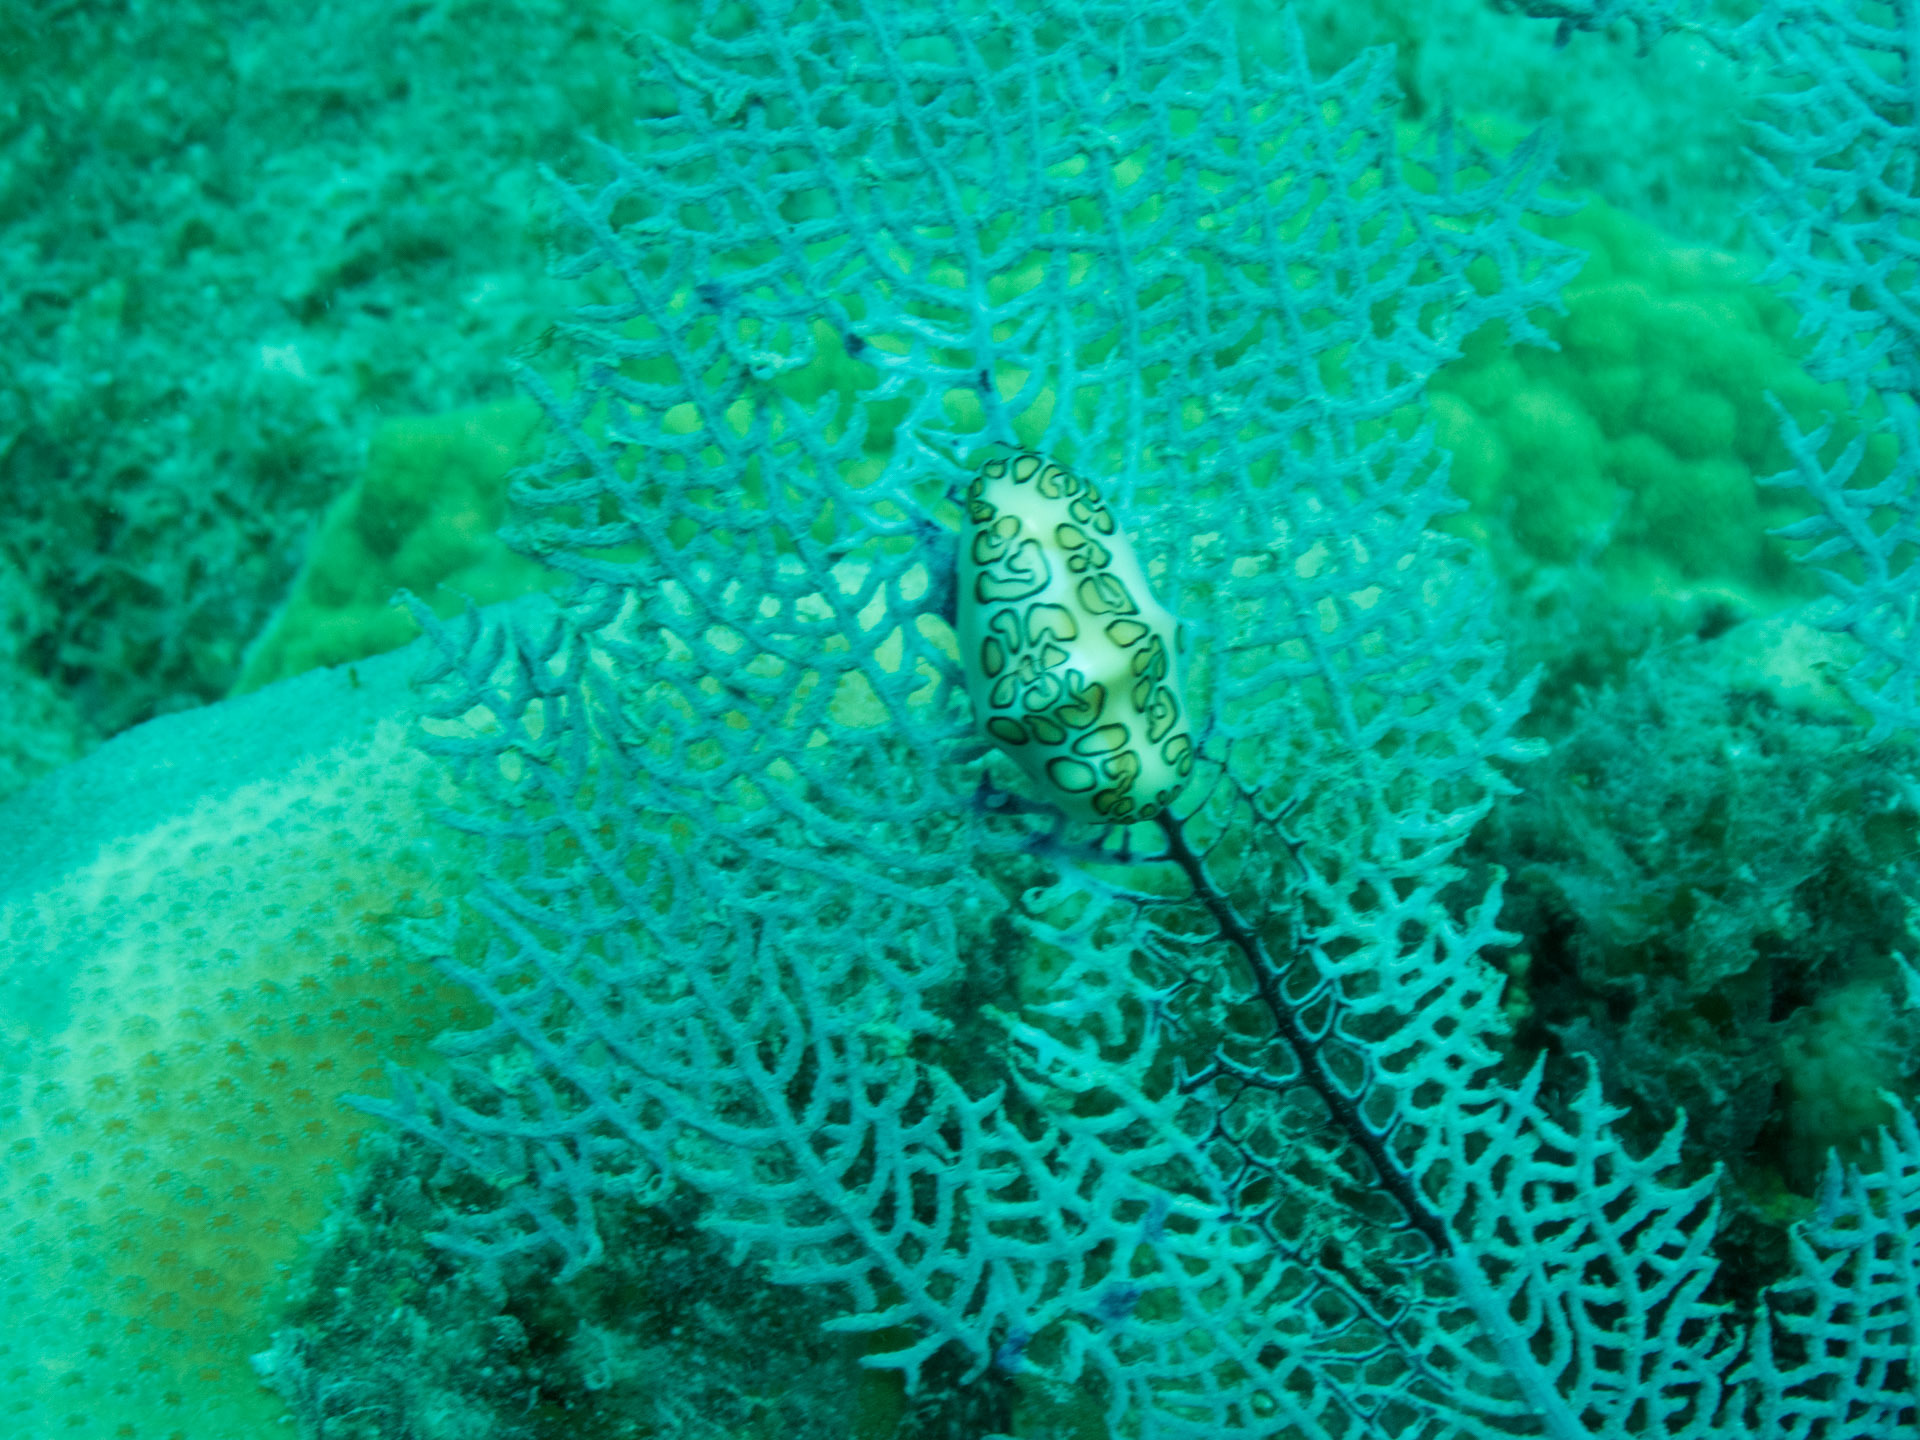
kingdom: Animalia
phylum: Mollusca
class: Gastropoda
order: Littorinimorpha
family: Ovulidae
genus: Cyphoma
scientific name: Cyphoma gibbosum
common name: Flamingo tongue
